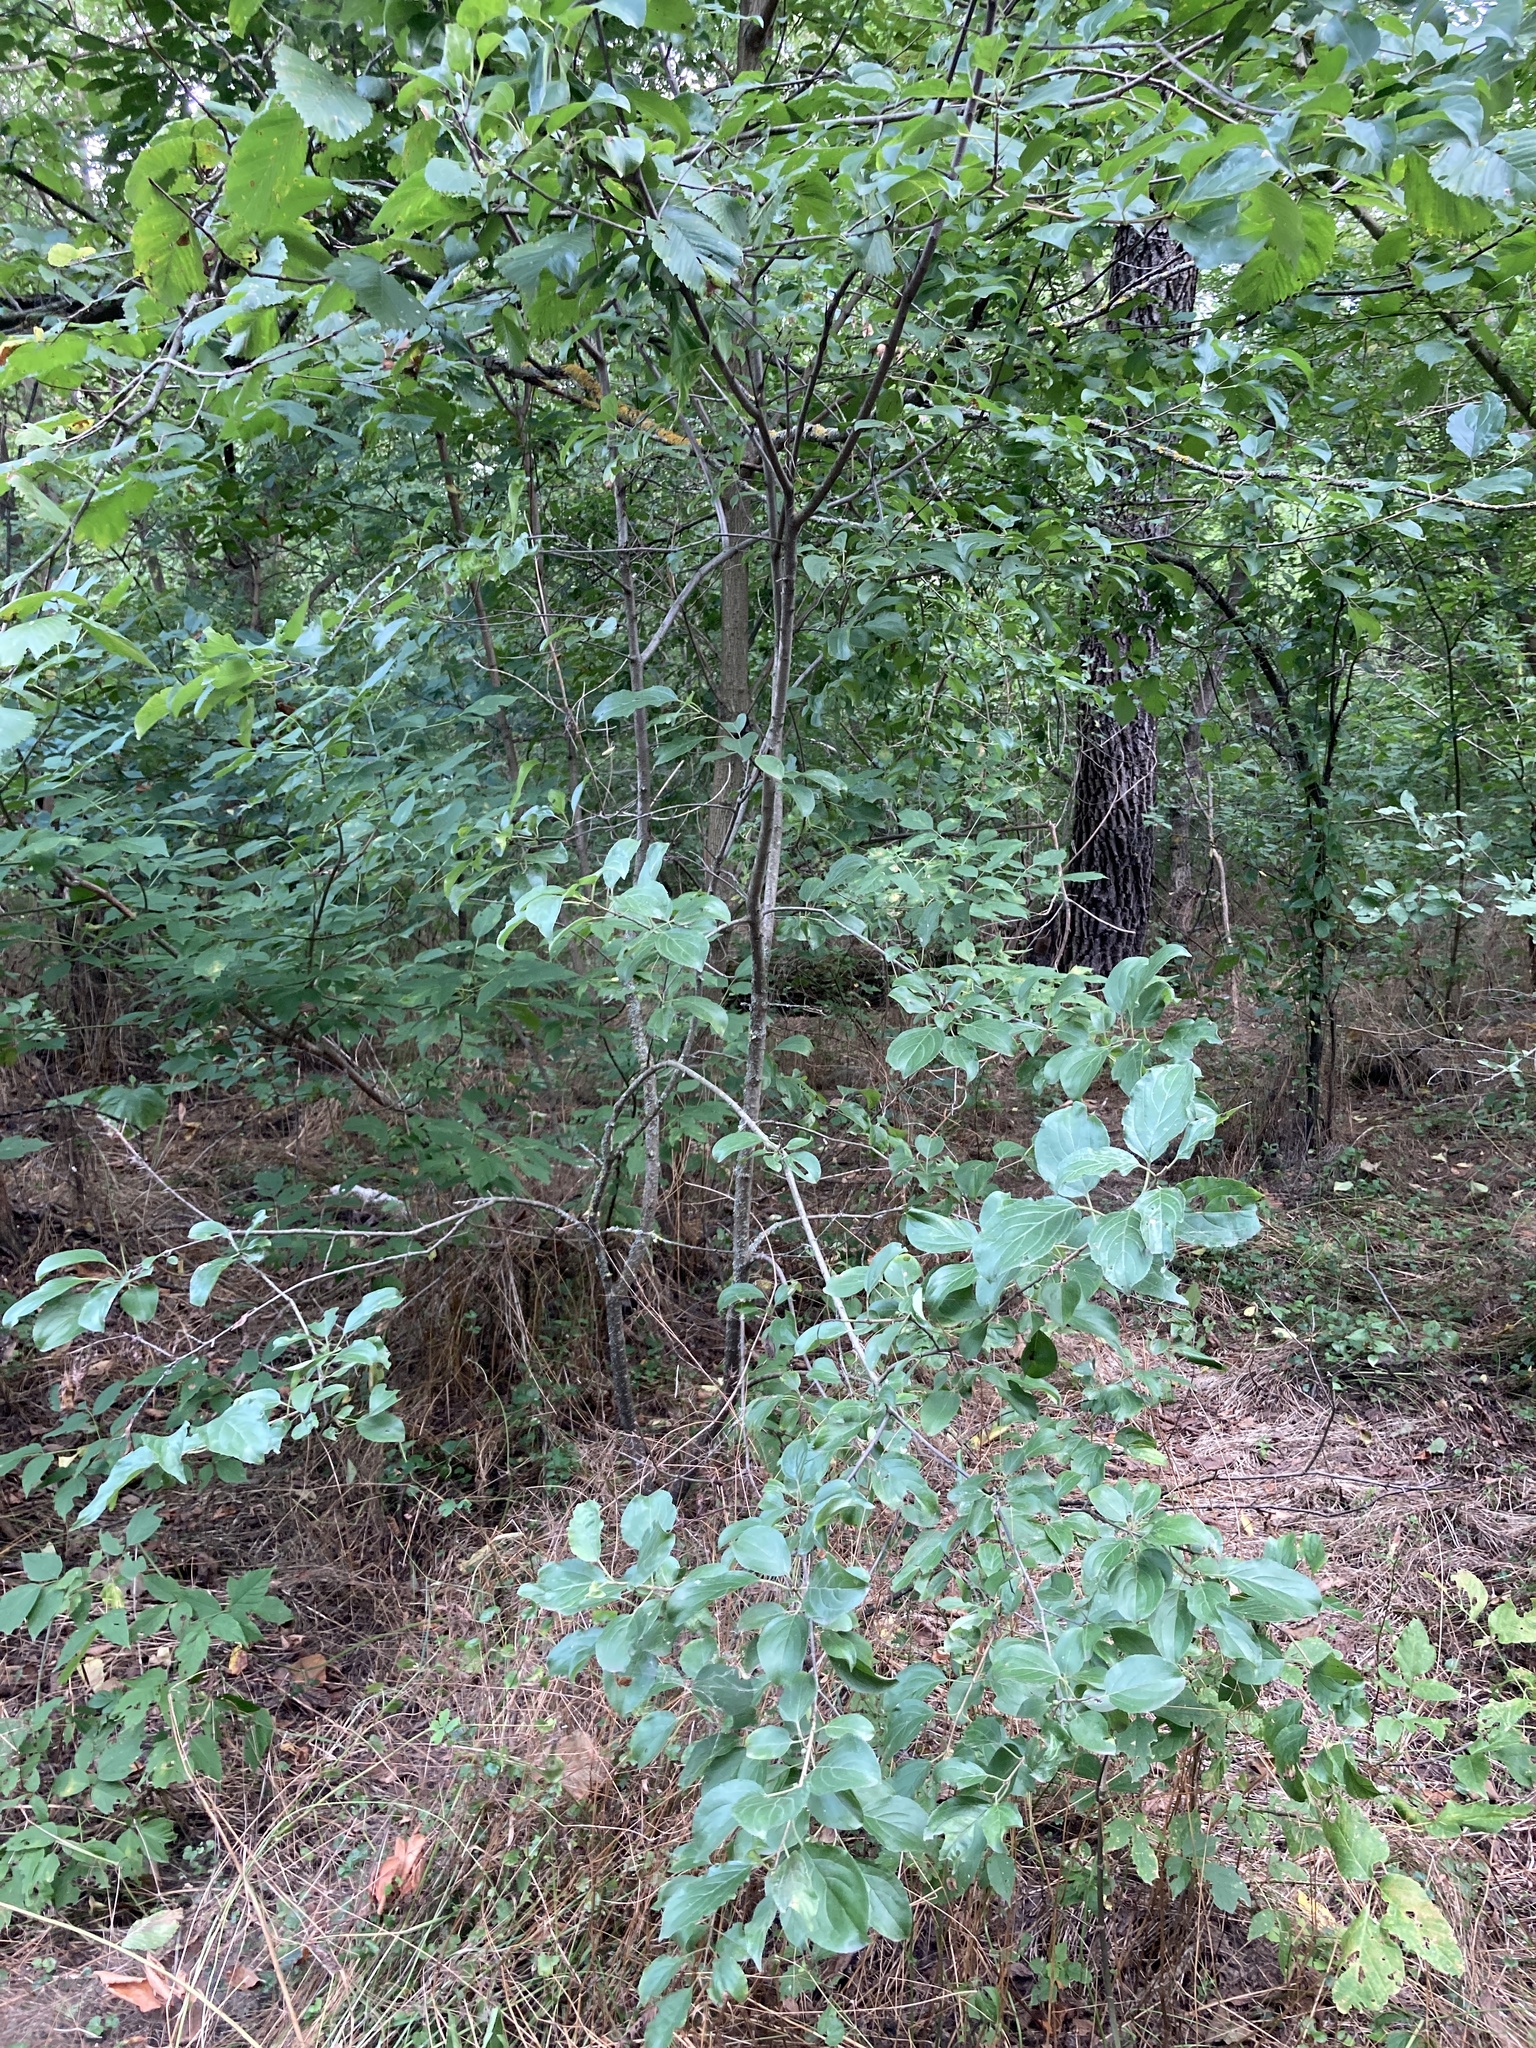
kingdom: Plantae
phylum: Tracheophyta
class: Magnoliopsida
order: Rosales
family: Rhamnaceae
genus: Rhamnus
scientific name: Rhamnus cathartica
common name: Common buckthorn
